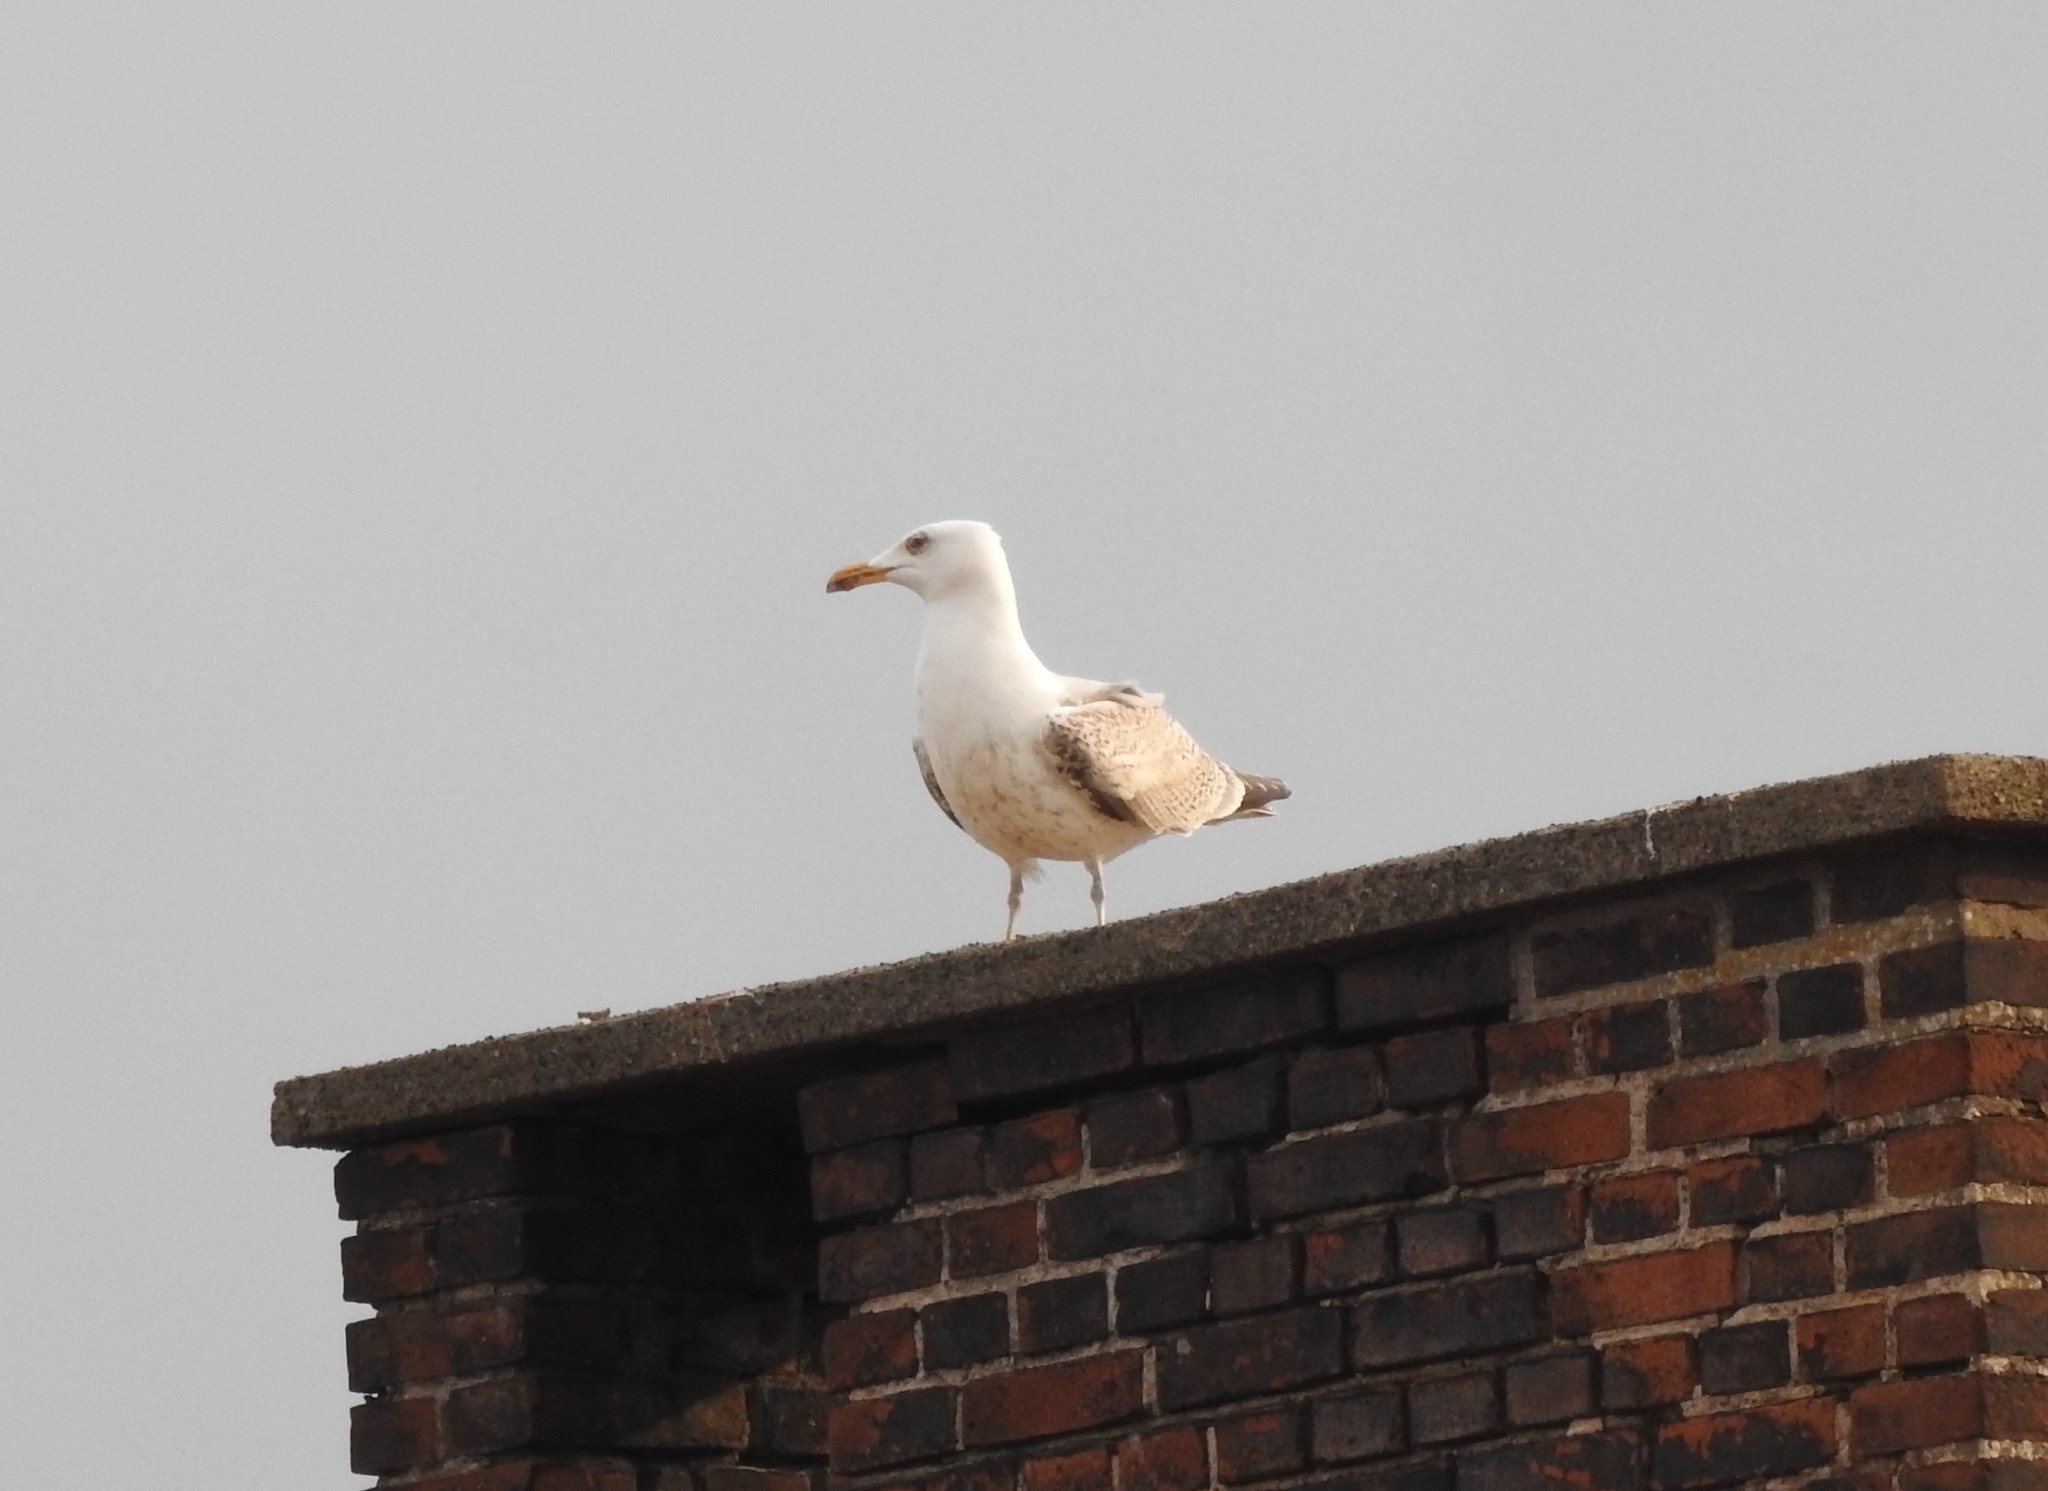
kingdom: Animalia
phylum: Chordata
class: Aves
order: Charadriiformes
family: Laridae
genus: Larus
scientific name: Larus argentatus
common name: Herring gull
